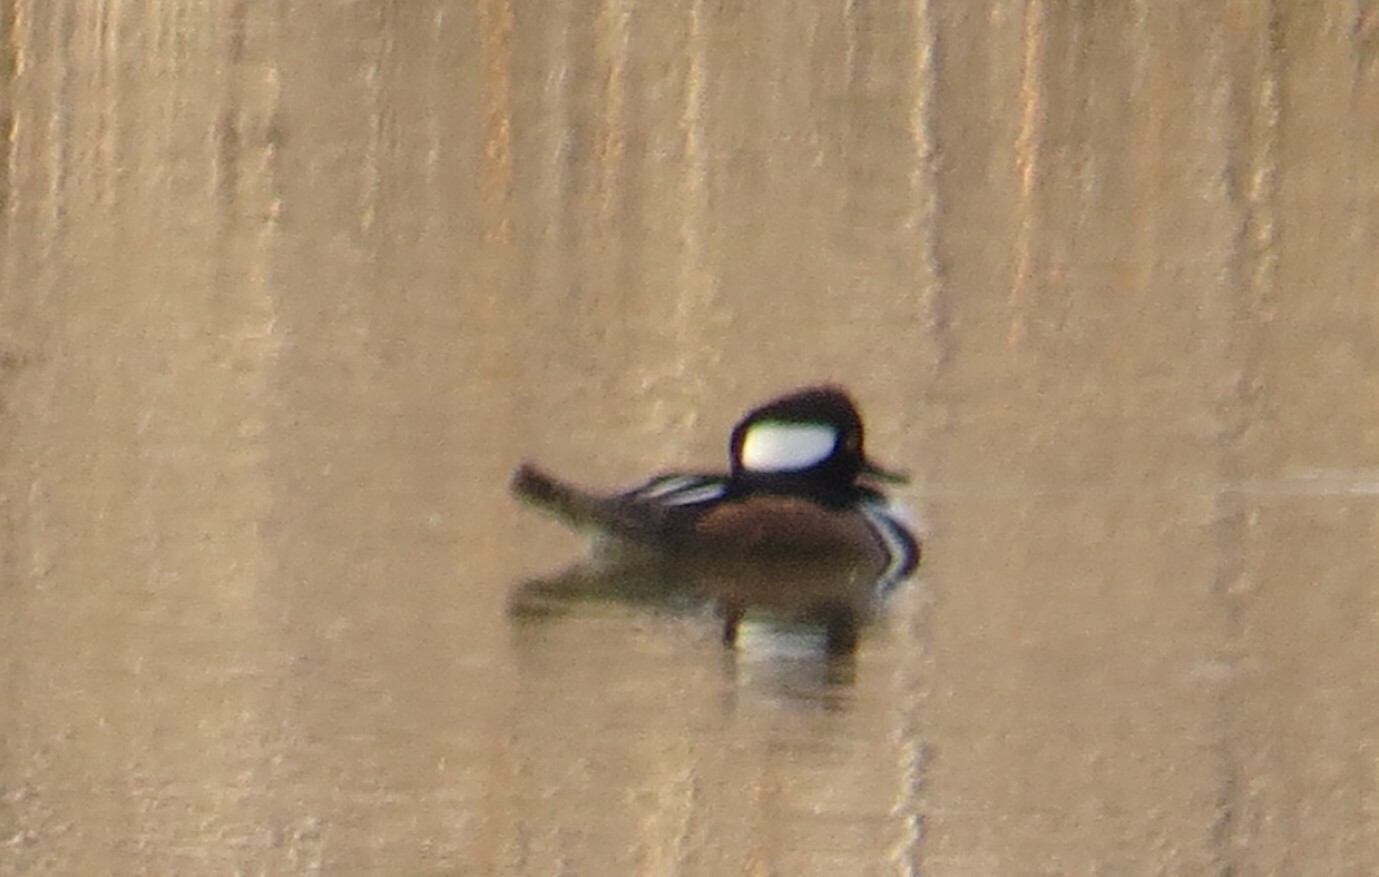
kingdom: Animalia
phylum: Chordata
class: Aves
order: Anseriformes
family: Anatidae
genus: Lophodytes
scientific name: Lophodytes cucullatus
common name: Hooded merganser
